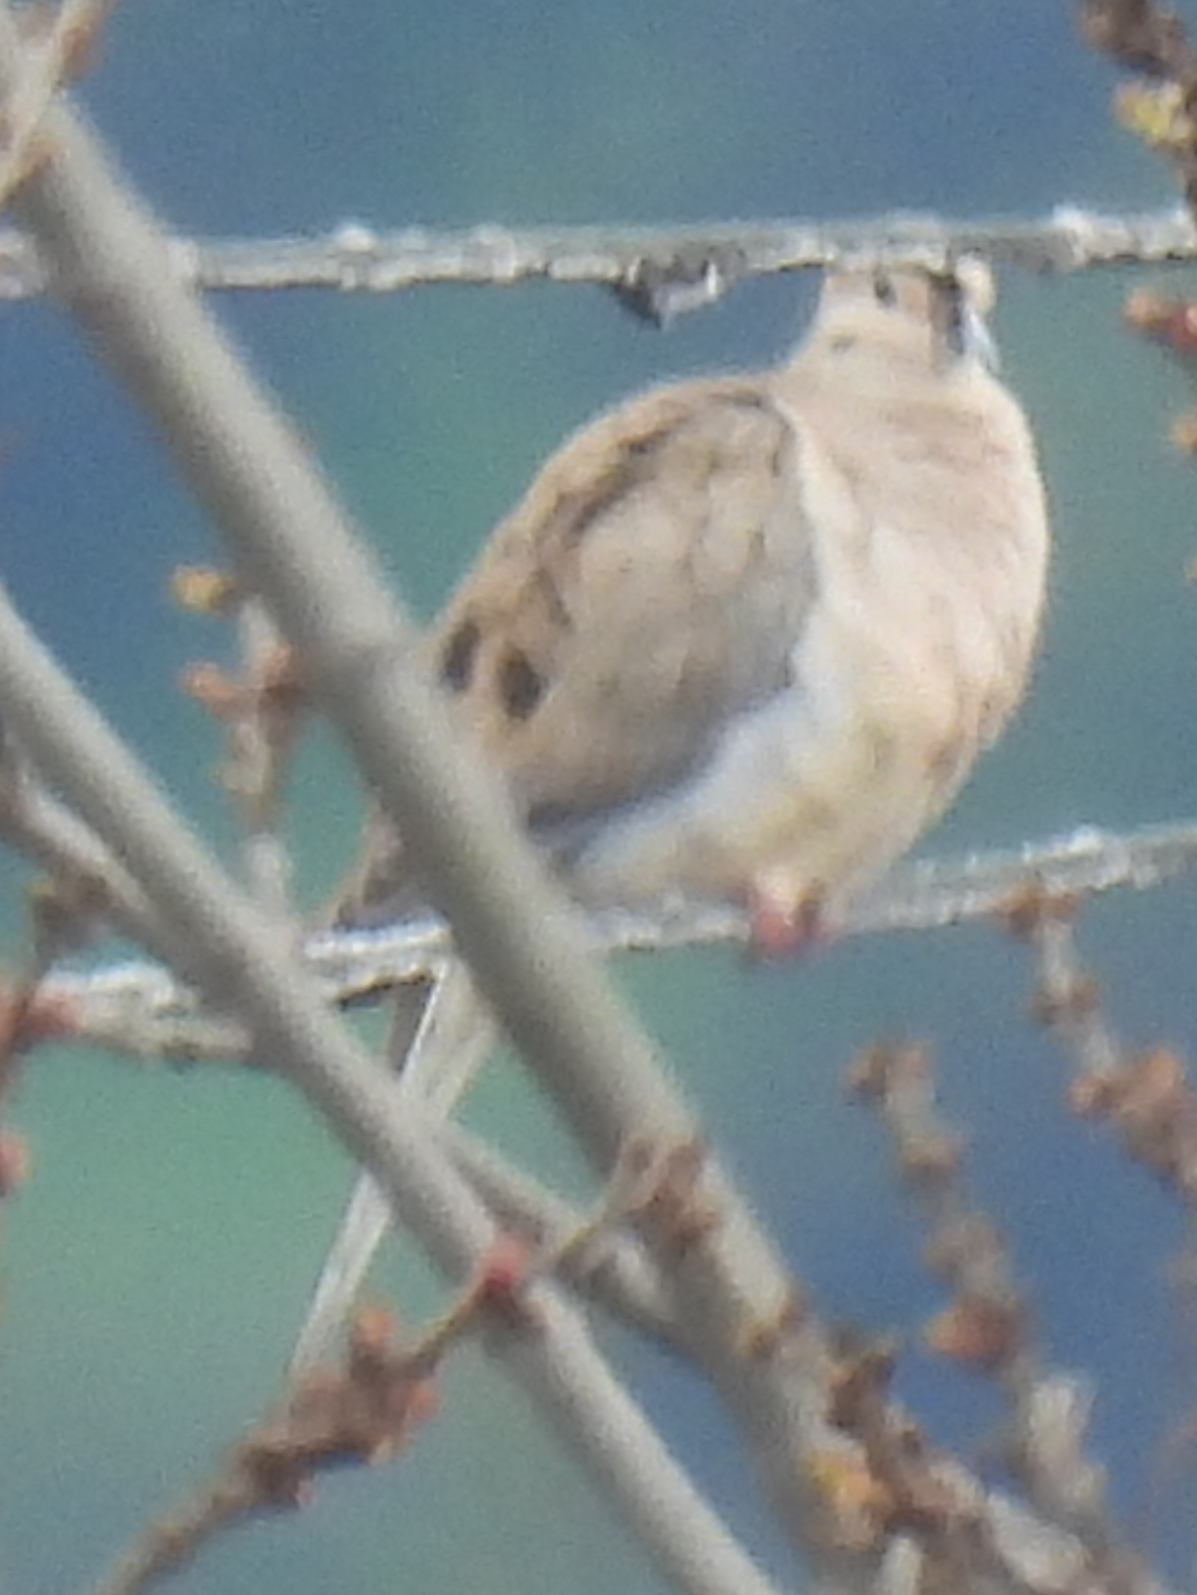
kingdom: Animalia
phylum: Chordata
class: Aves
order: Columbiformes
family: Columbidae
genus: Zenaida
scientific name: Zenaida macroura
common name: Mourning dove
